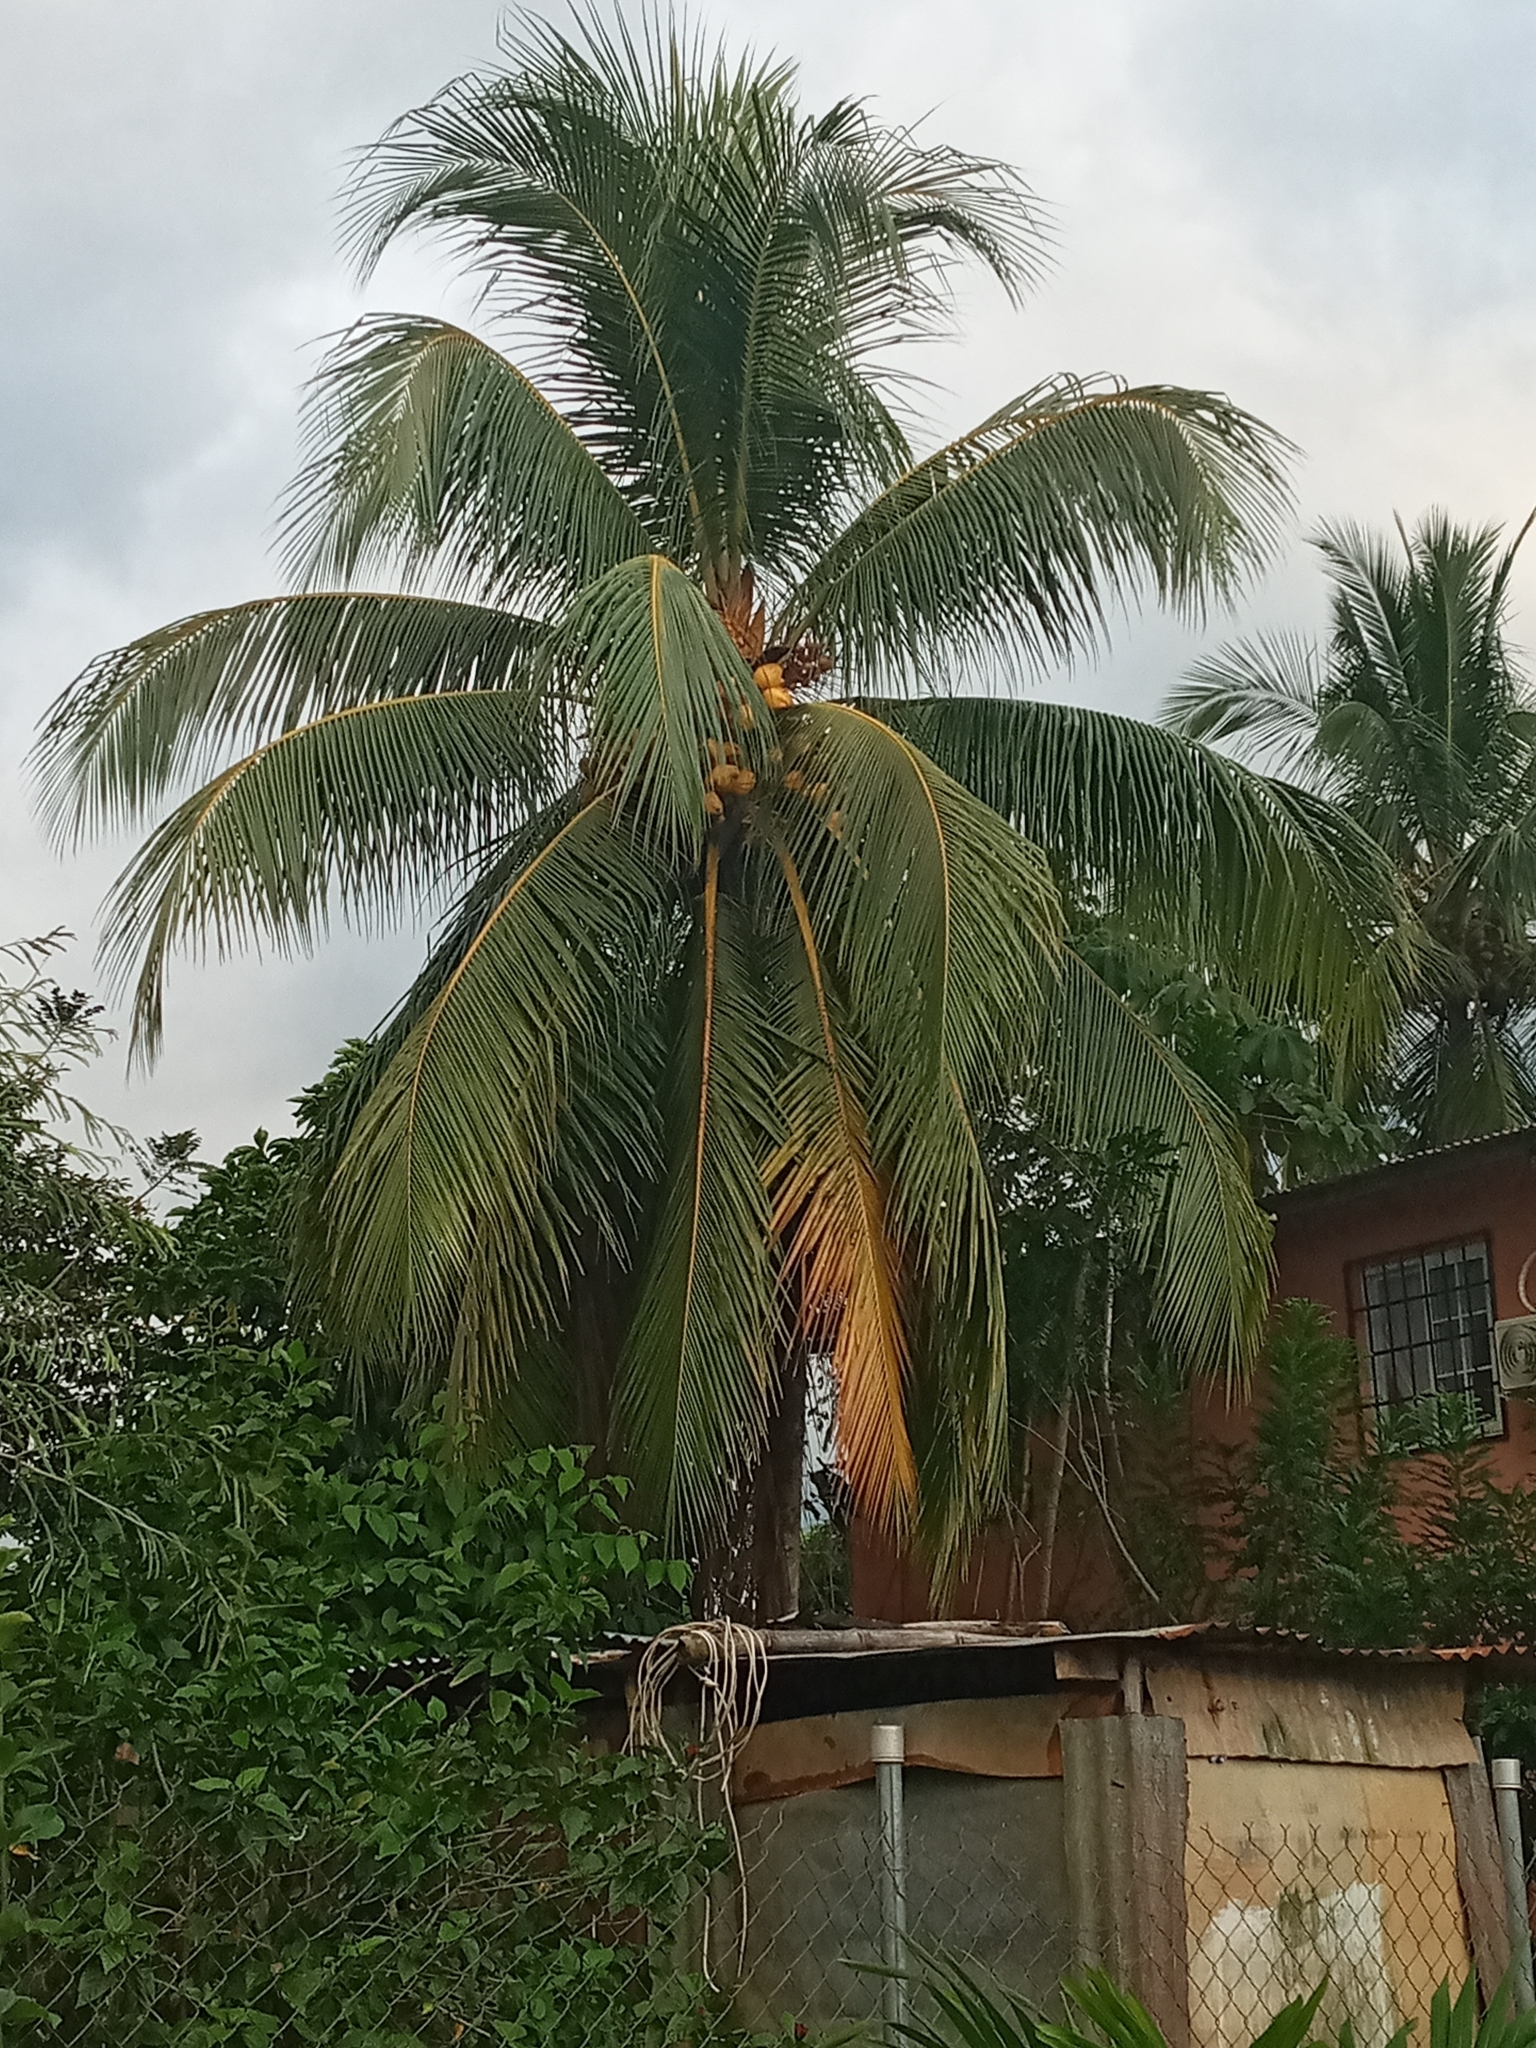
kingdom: Plantae
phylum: Tracheophyta
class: Liliopsida
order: Arecales
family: Arecaceae
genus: Cocos
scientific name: Cocos nucifera
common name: Coconut palm
